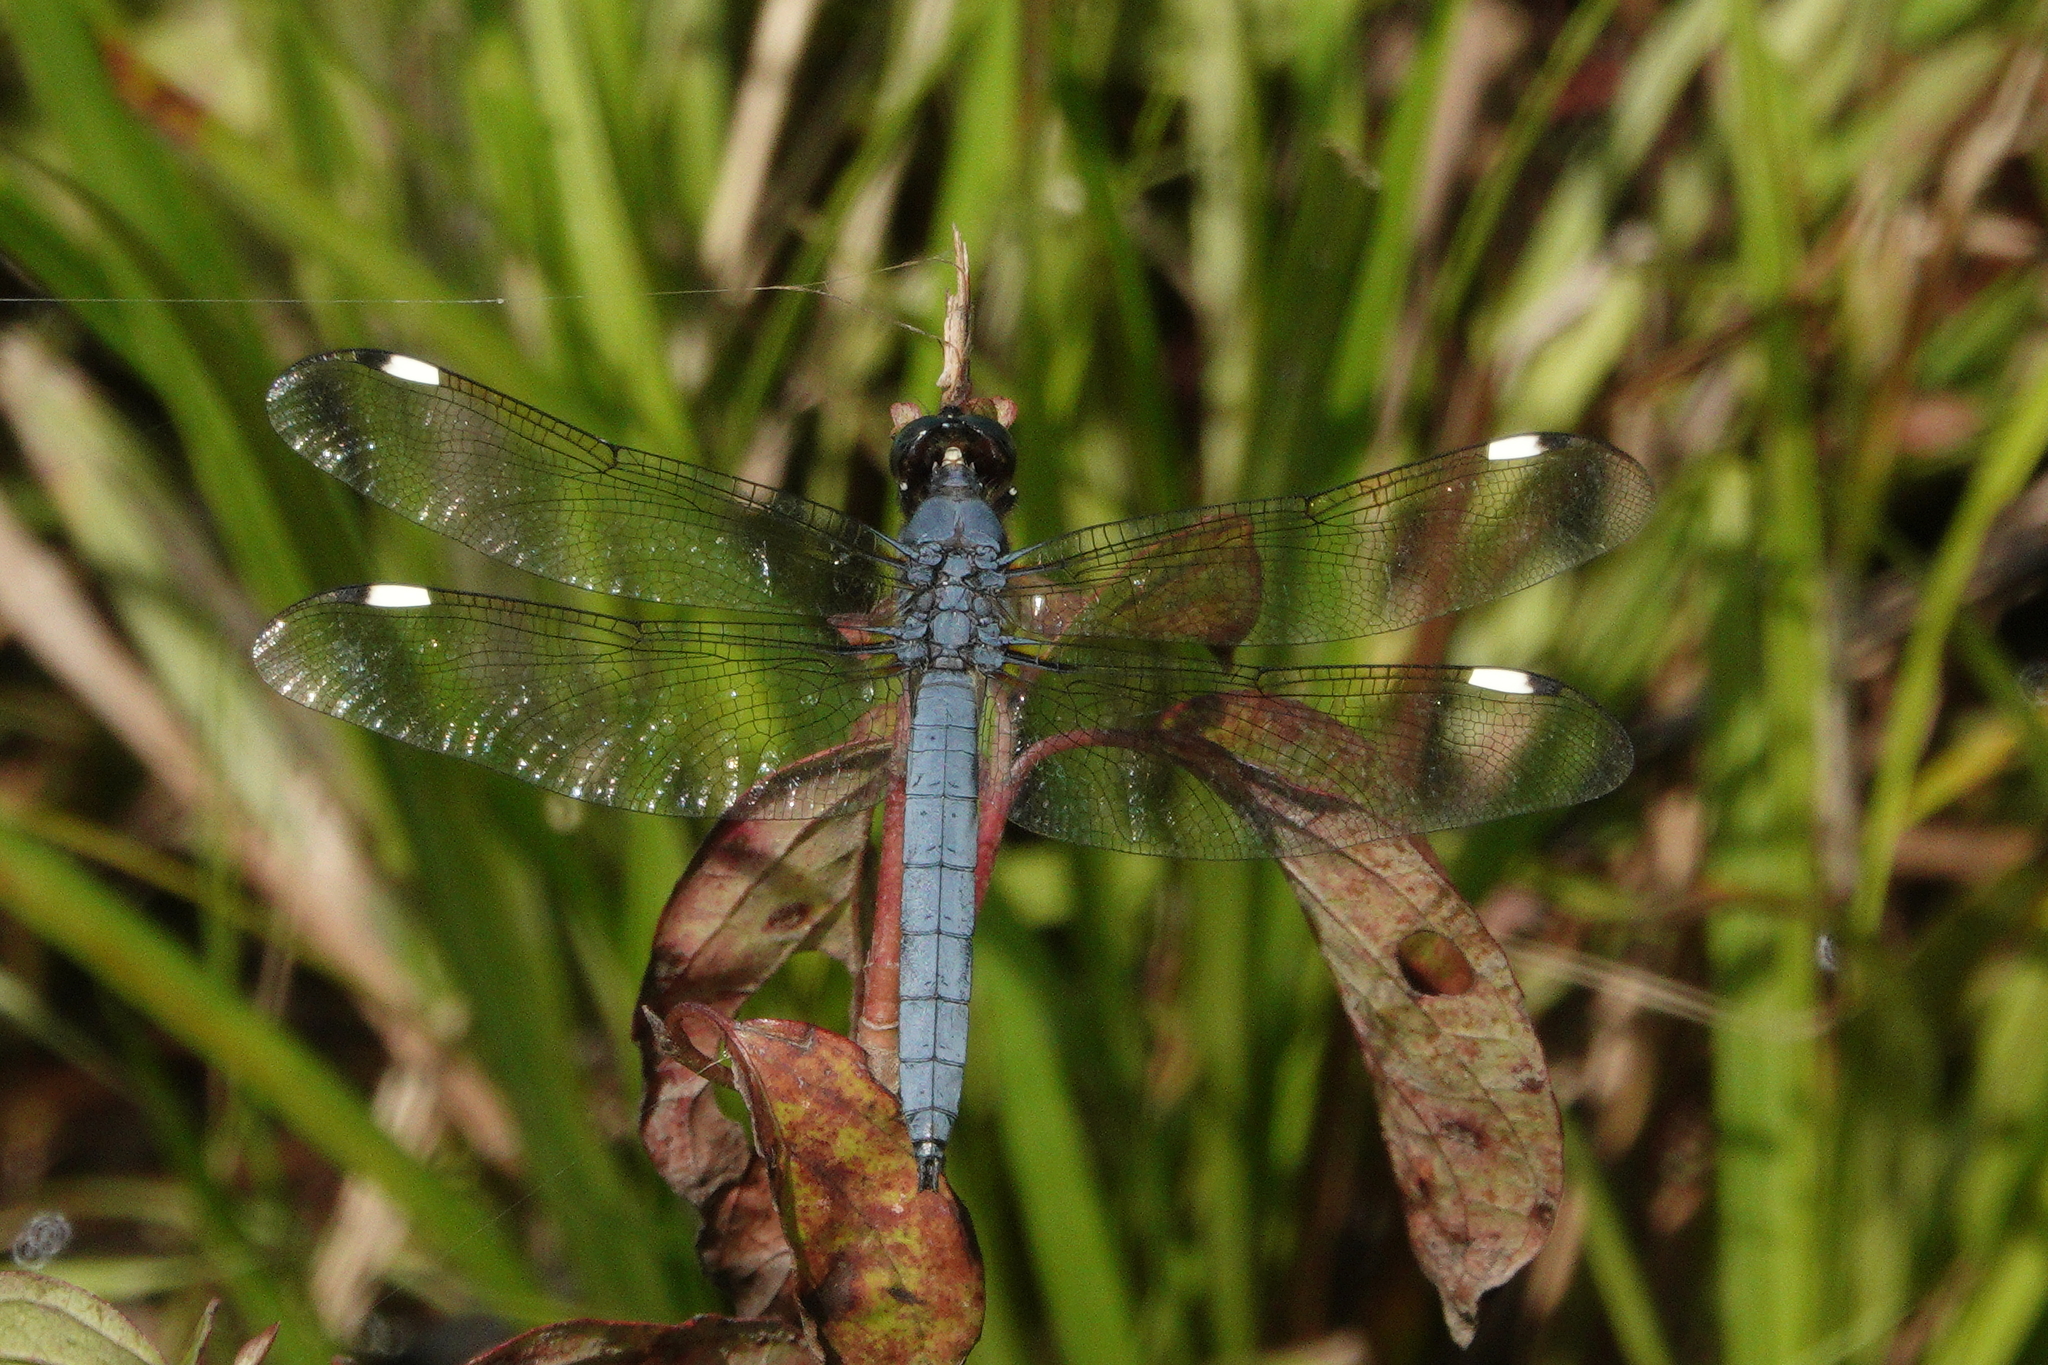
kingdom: Animalia
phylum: Arthropoda
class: Insecta
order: Odonata
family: Libellulidae
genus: Libellula
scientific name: Libellula cyanea
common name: Spangled skimmer
